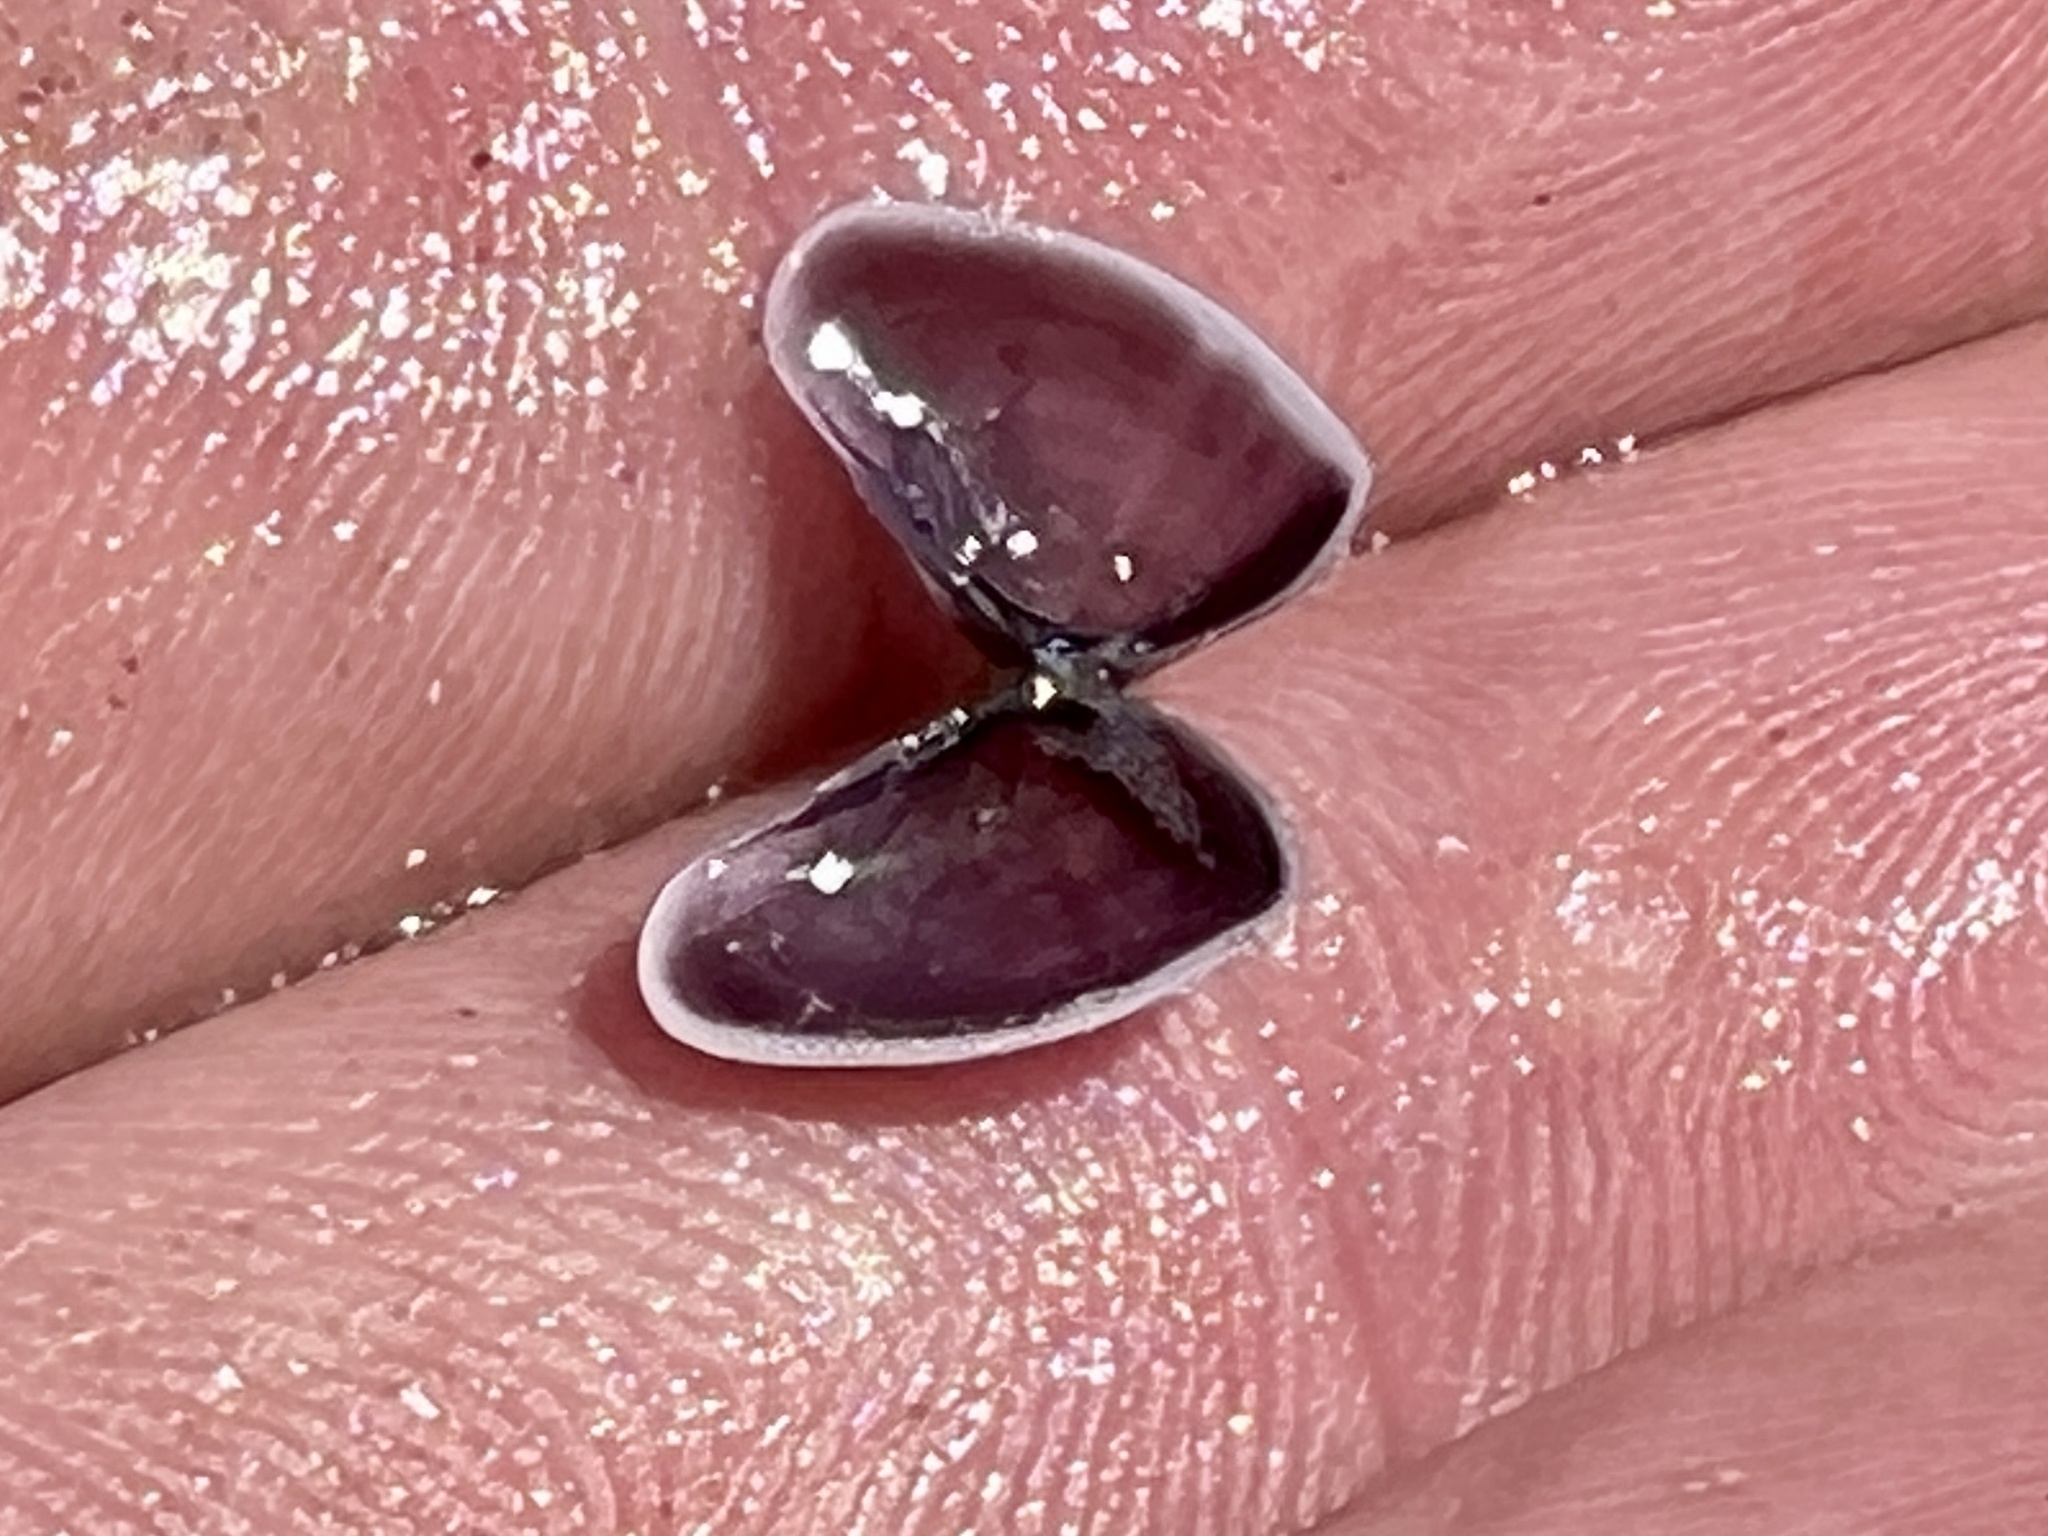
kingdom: Animalia
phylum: Mollusca
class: Bivalvia
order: Cardiida
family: Donacidae
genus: Donax
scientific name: Donax variabilis
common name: Butterfly shell
